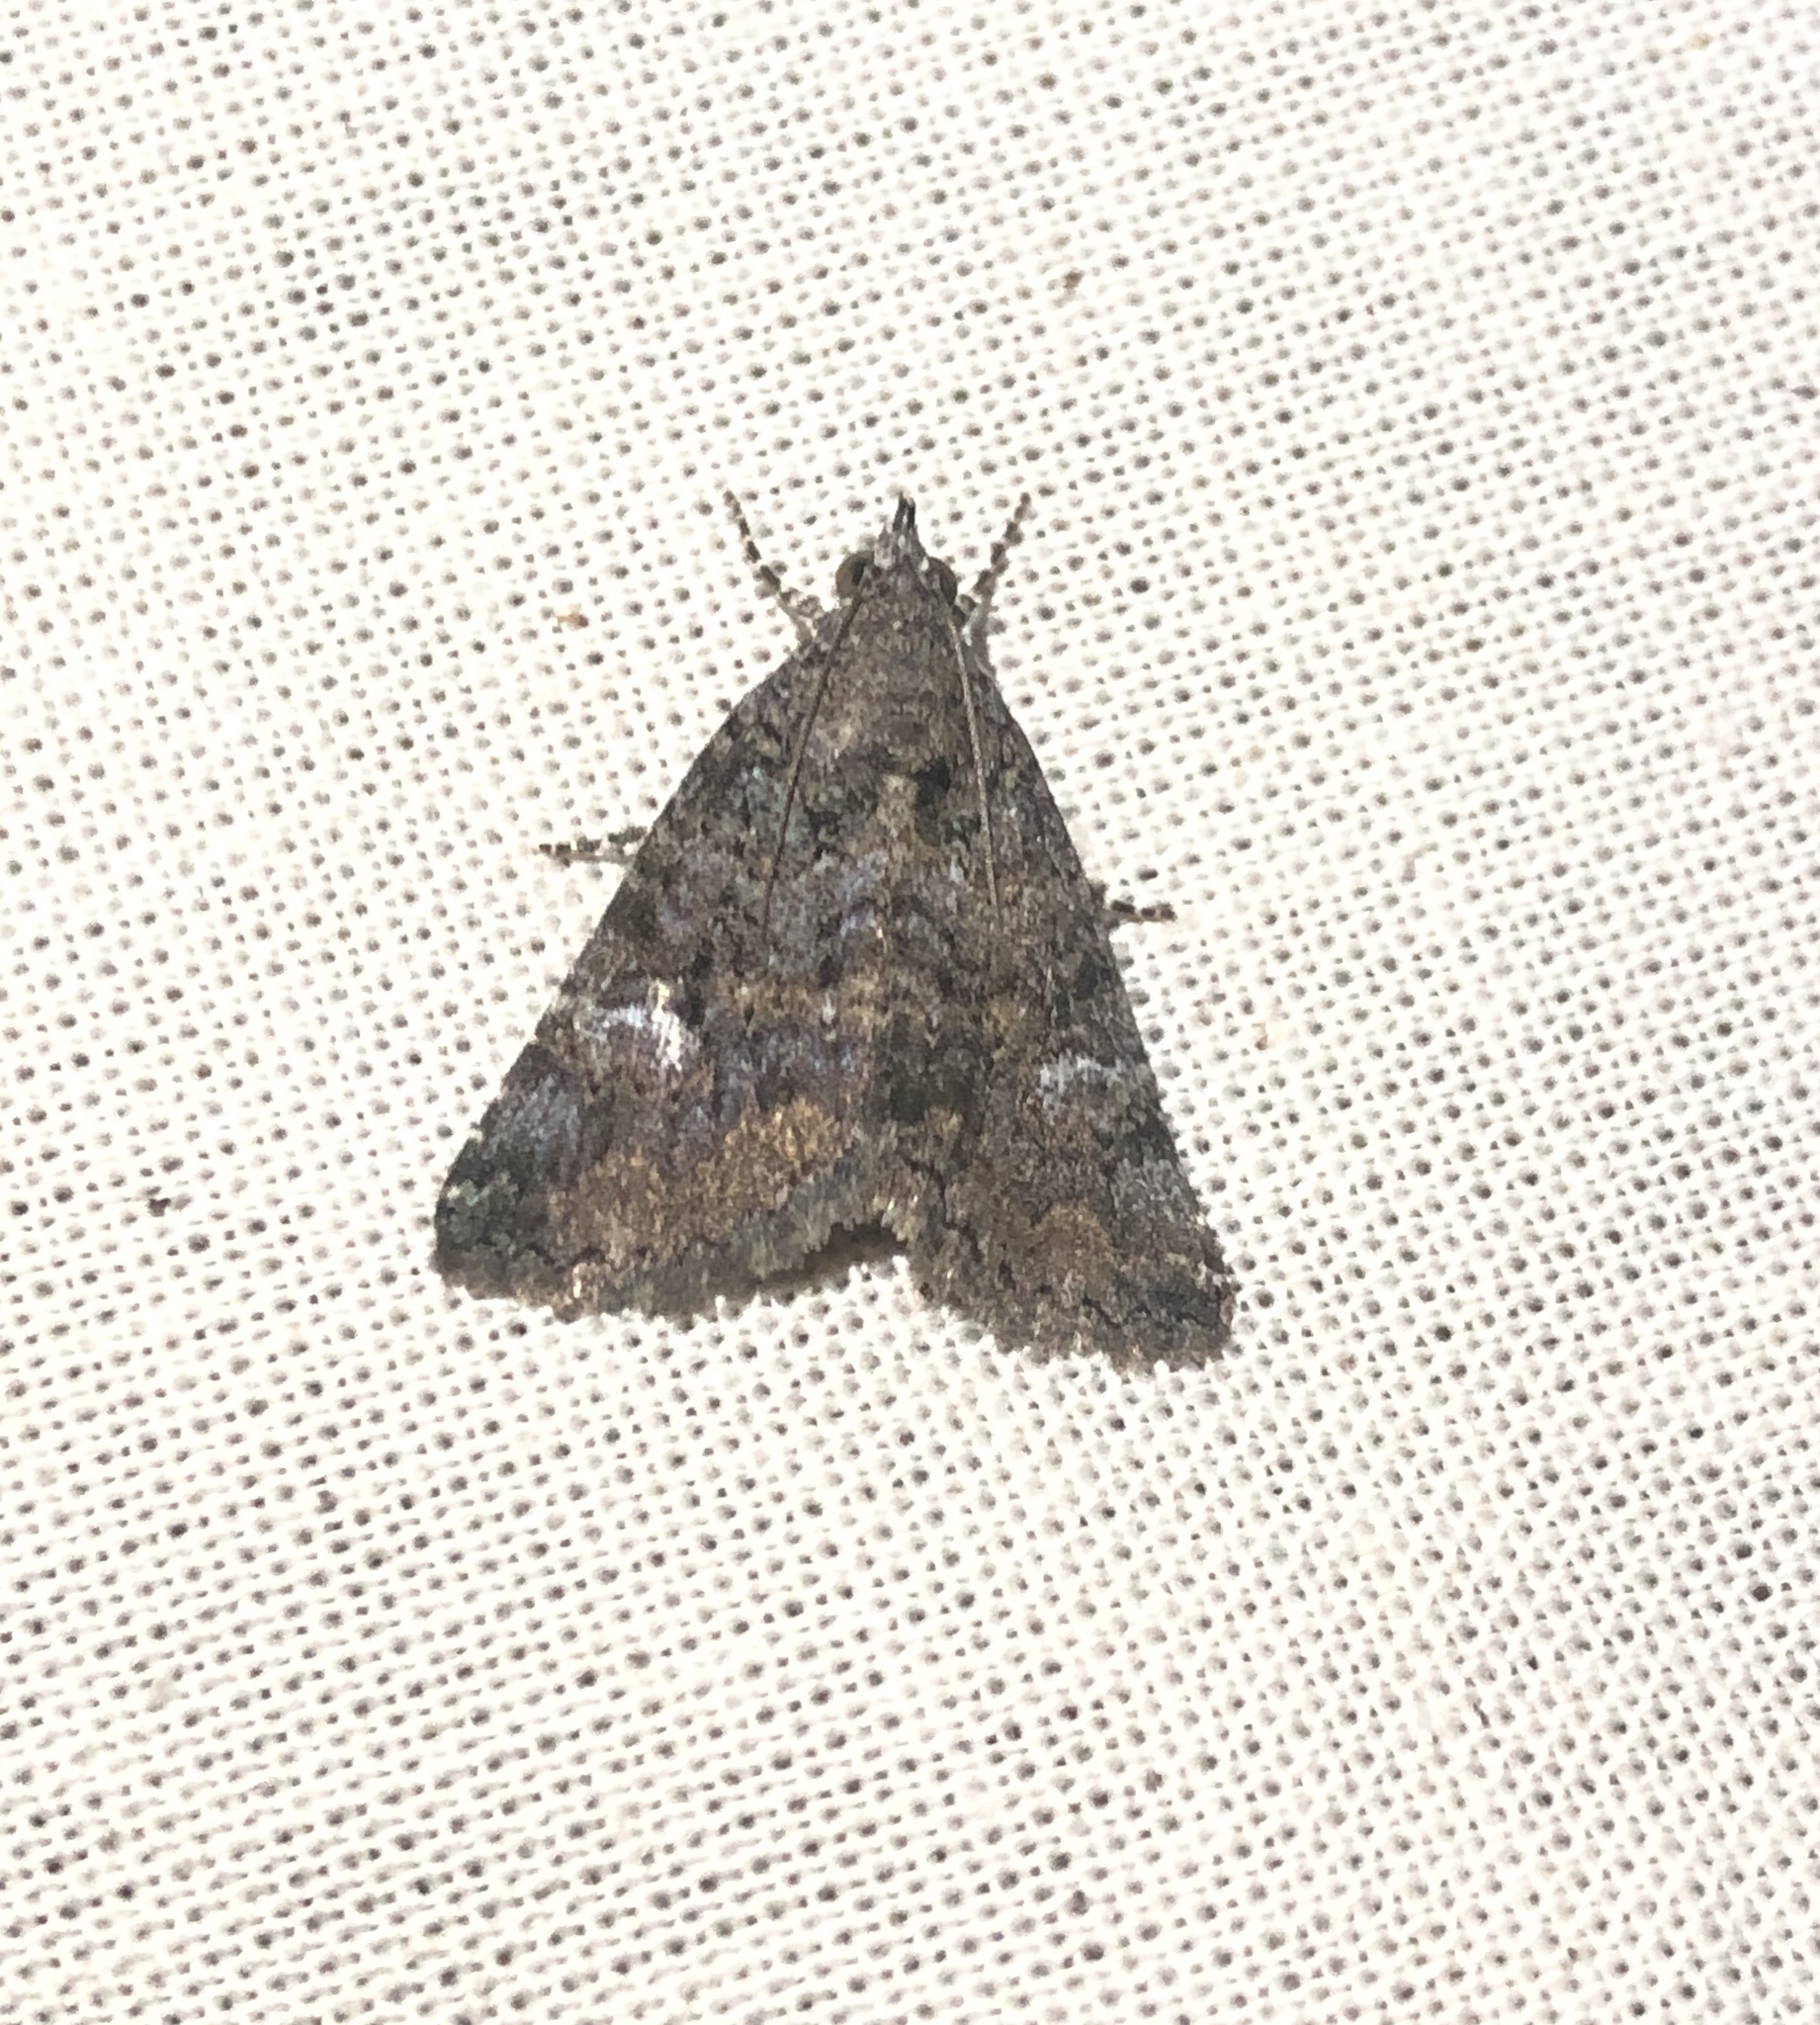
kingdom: Animalia
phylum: Arthropoda
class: Insecta
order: Lepidoptera
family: Erebidae
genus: Eubolina
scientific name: Eubolina impartialis
